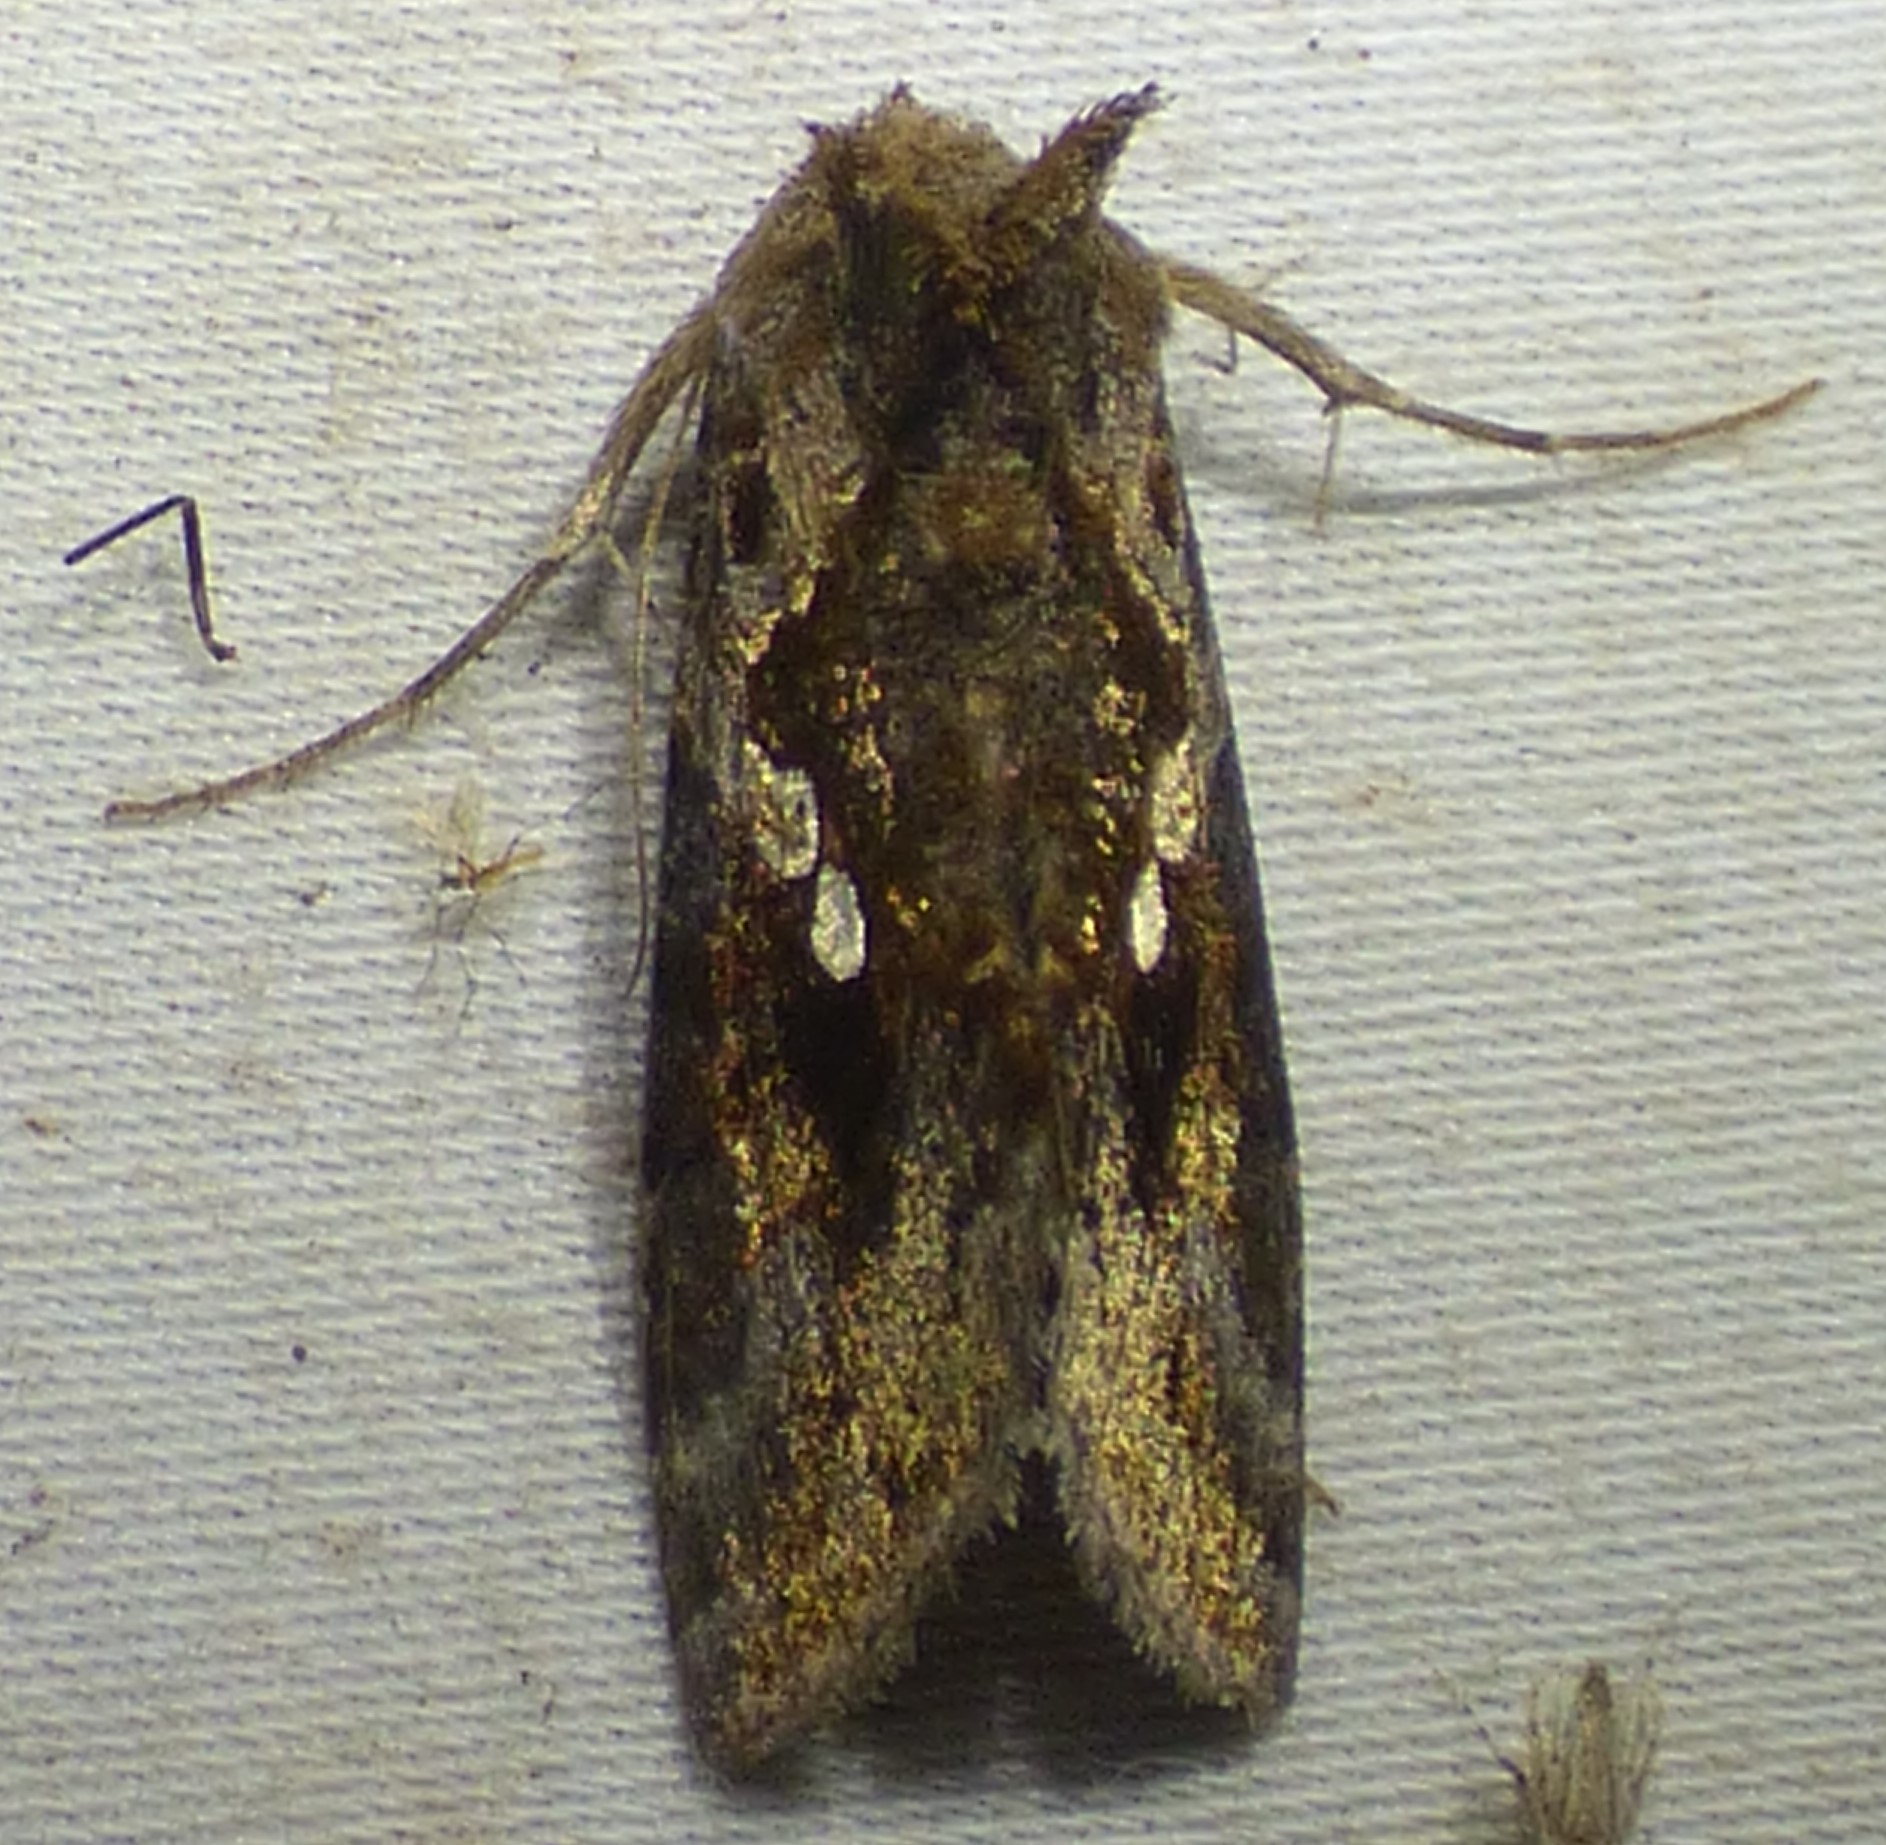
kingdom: Animalia
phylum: Arthropoda
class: Insecta
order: Lepidoptera
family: Noctuidae
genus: Chrysodeixis
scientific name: Chrysodeixis includens
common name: Cutworm moth
